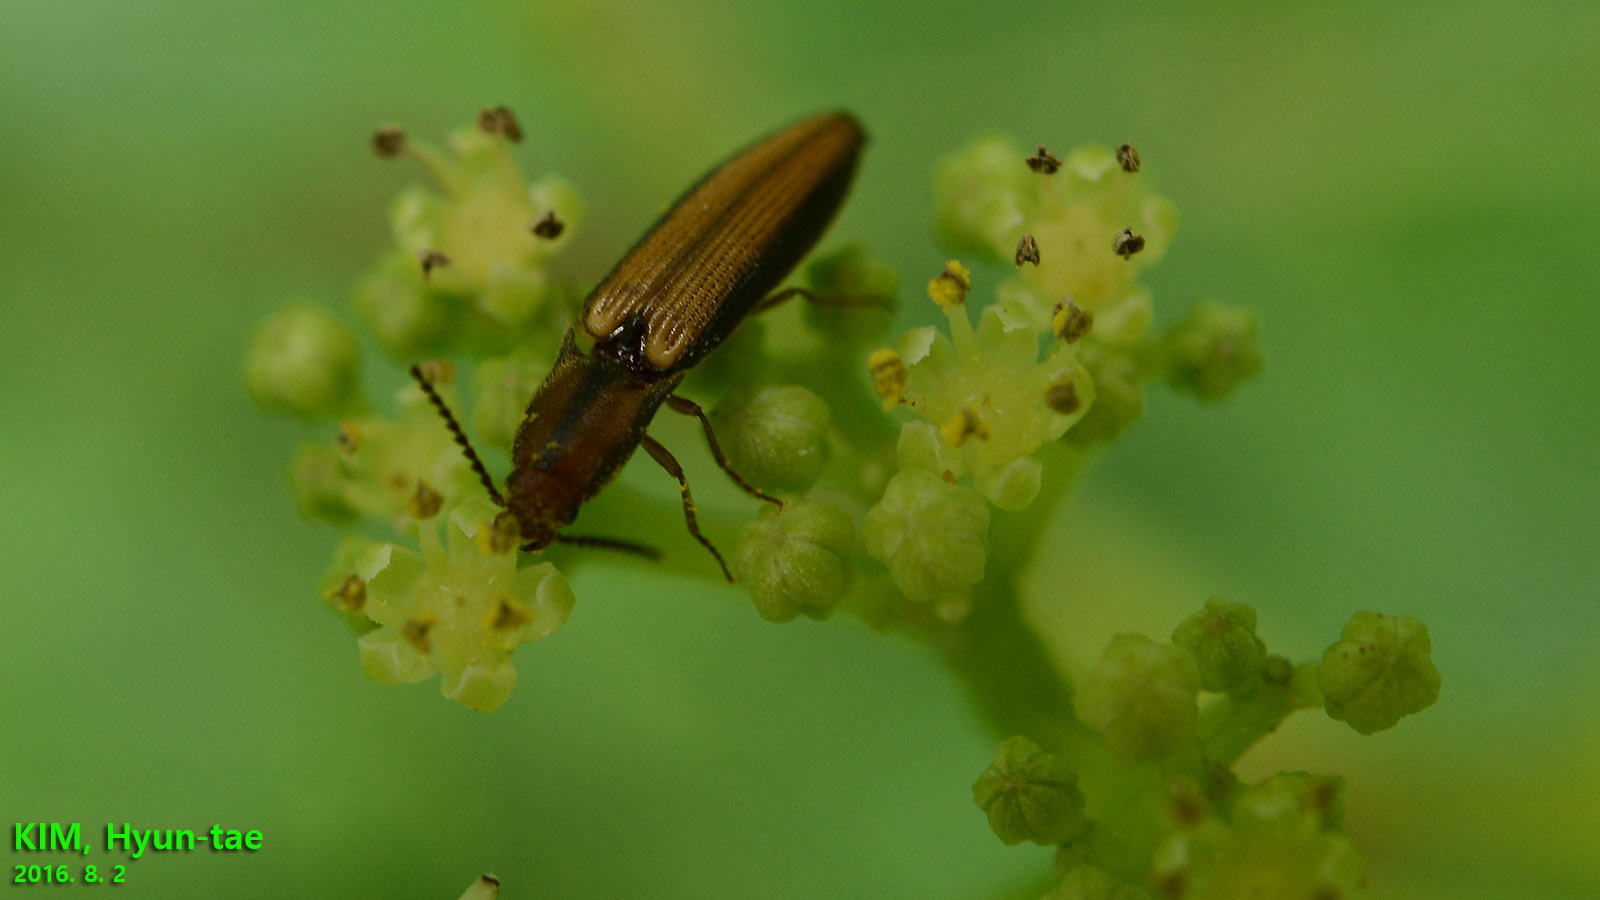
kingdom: Animalia
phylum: Arthropoda
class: Insecta
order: Coleoptera
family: Elateridae
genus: Ludioschema
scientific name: Ludioschema vittiger
